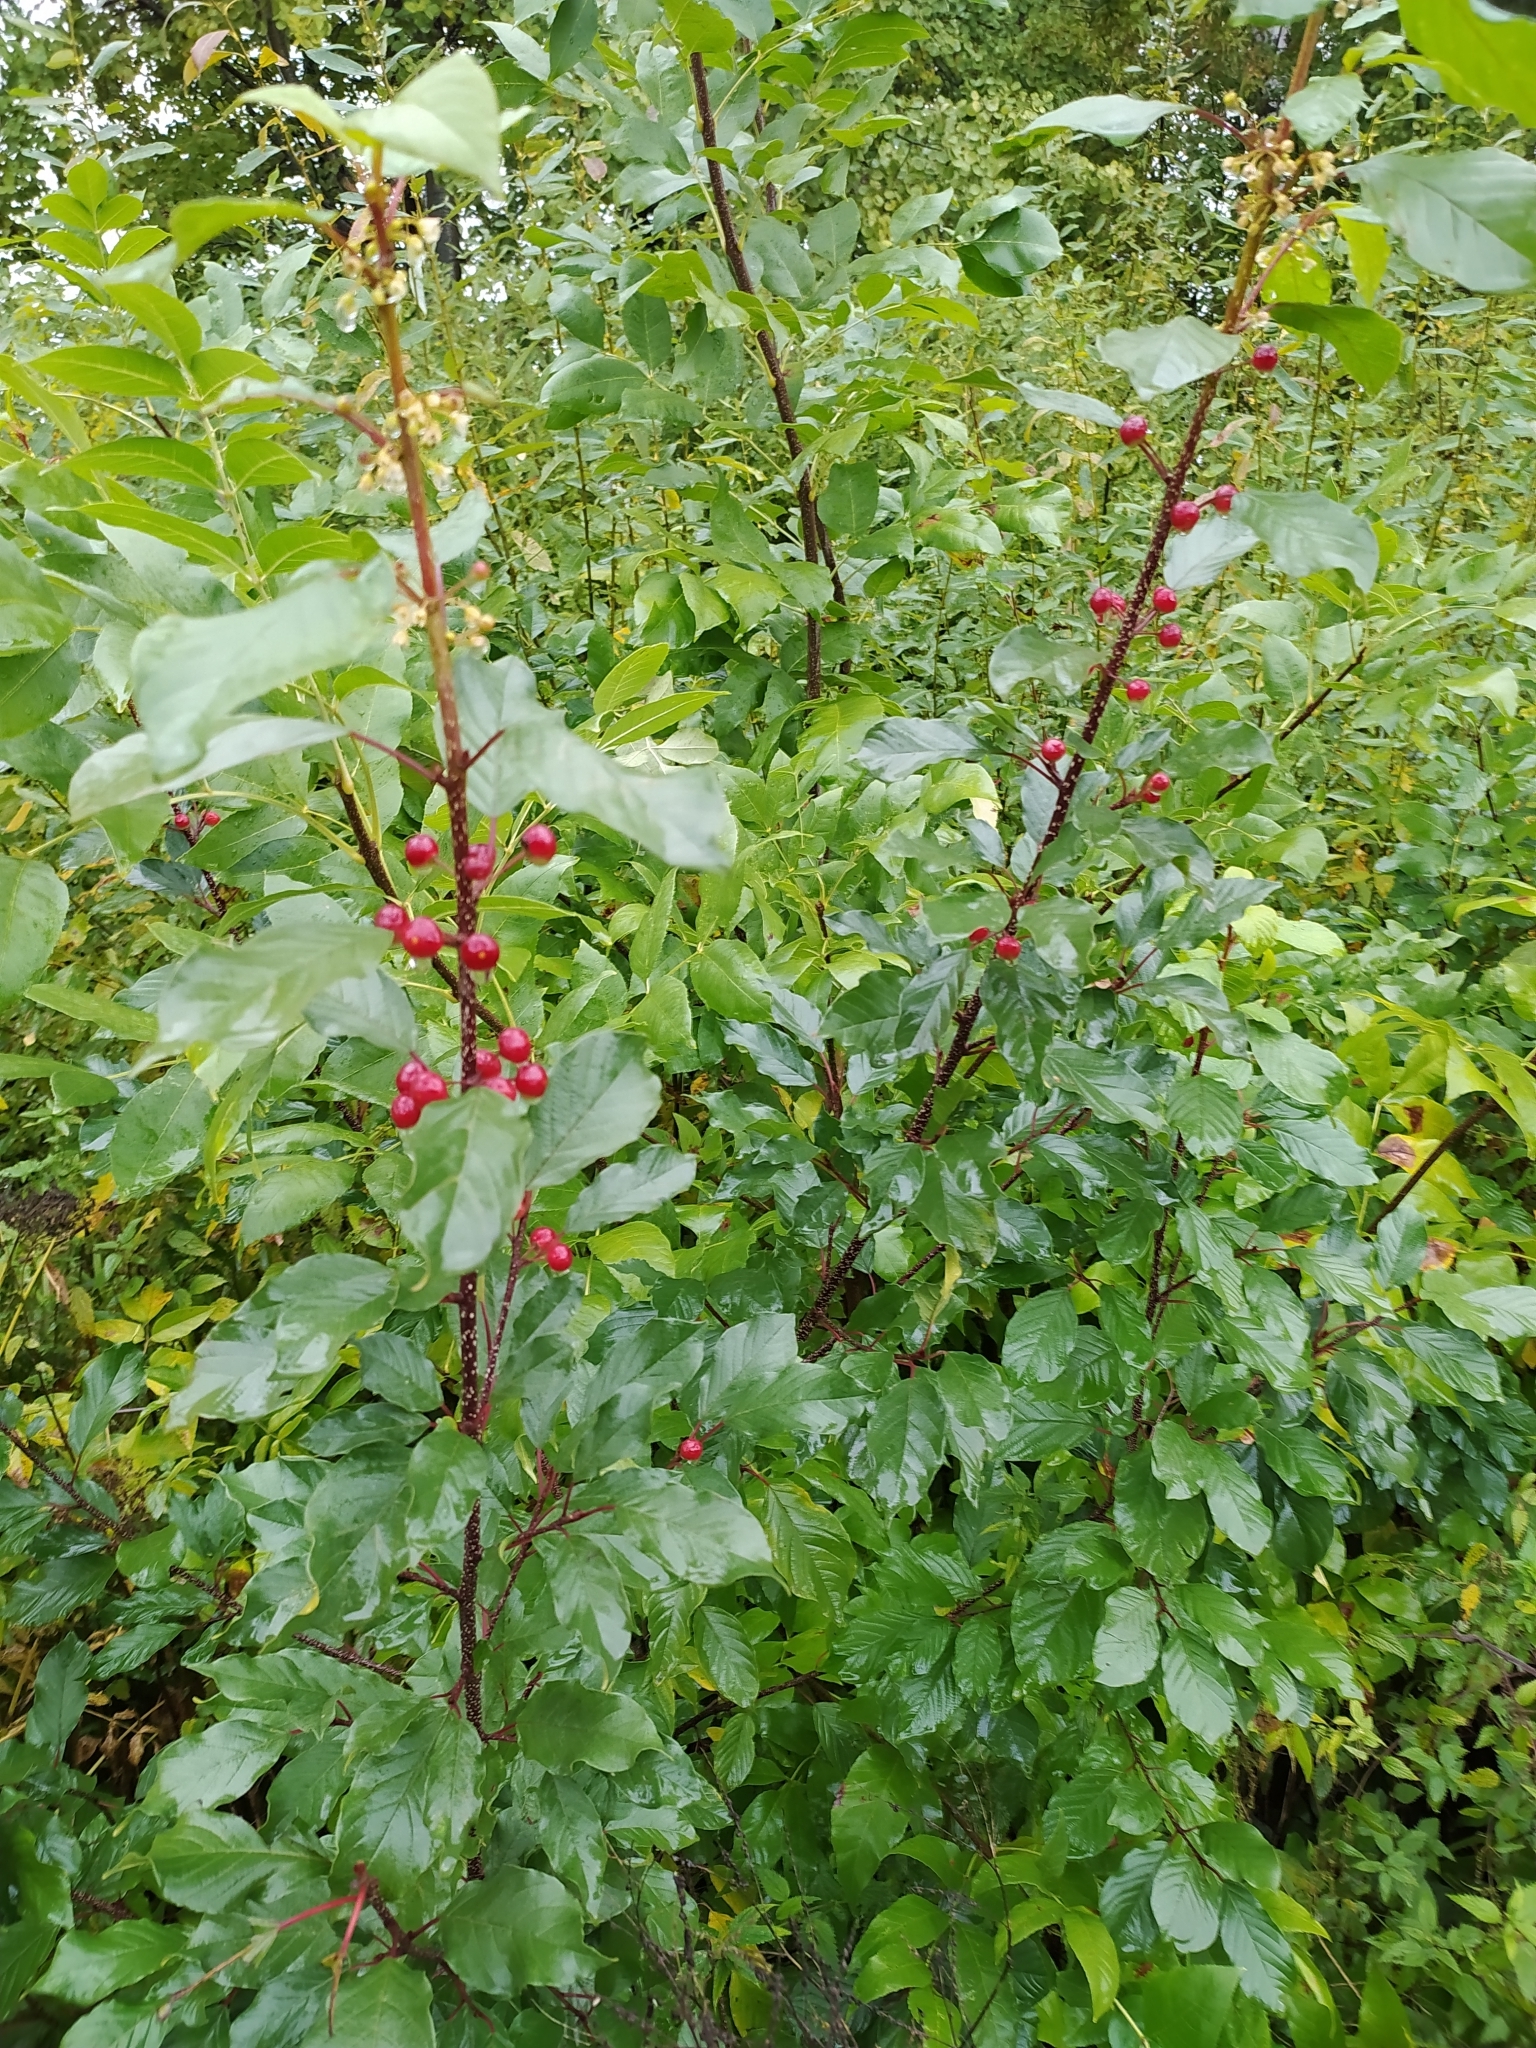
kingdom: Plantae
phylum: Tracheophyta
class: Magnoliopsida
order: Rosales
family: Rhamnaceae
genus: Frangula
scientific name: Frangula alnus
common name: Alder buckthorn
